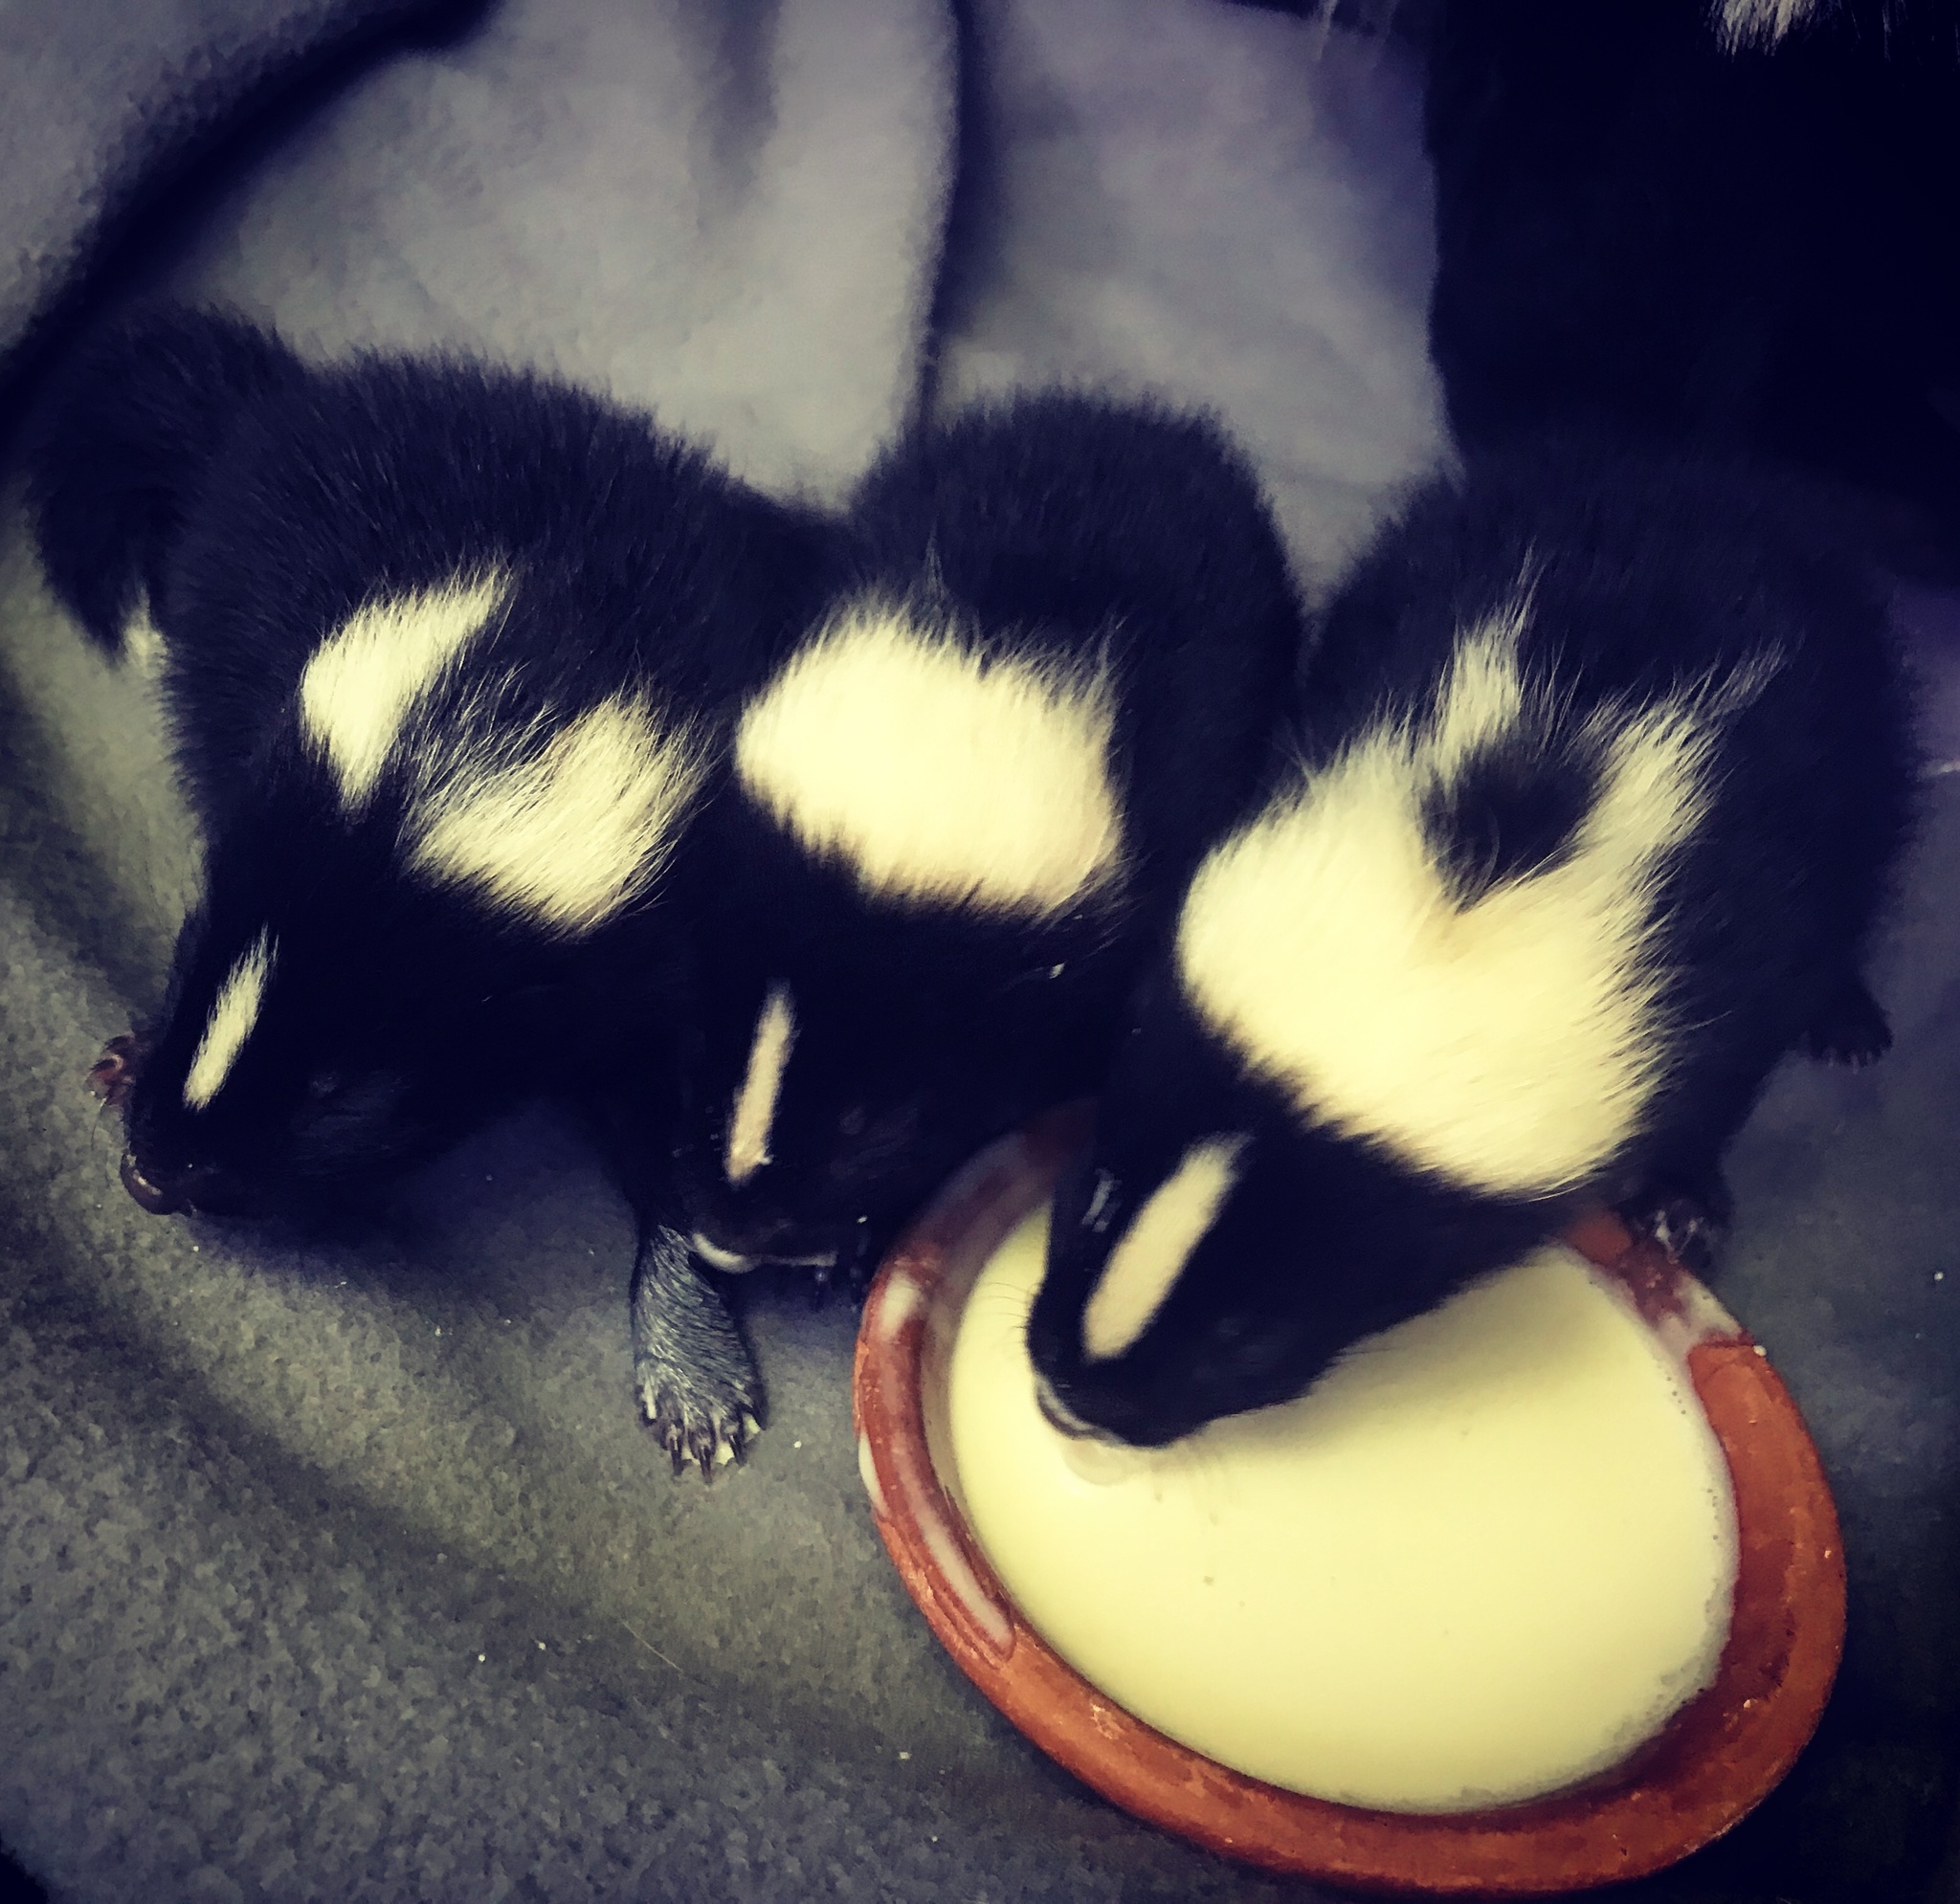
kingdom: Animalia
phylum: Chordata
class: Mammalia
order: Carnivora
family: Mephitidae
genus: Mephitis
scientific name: Mephitis mephitis
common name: Striped skunk
